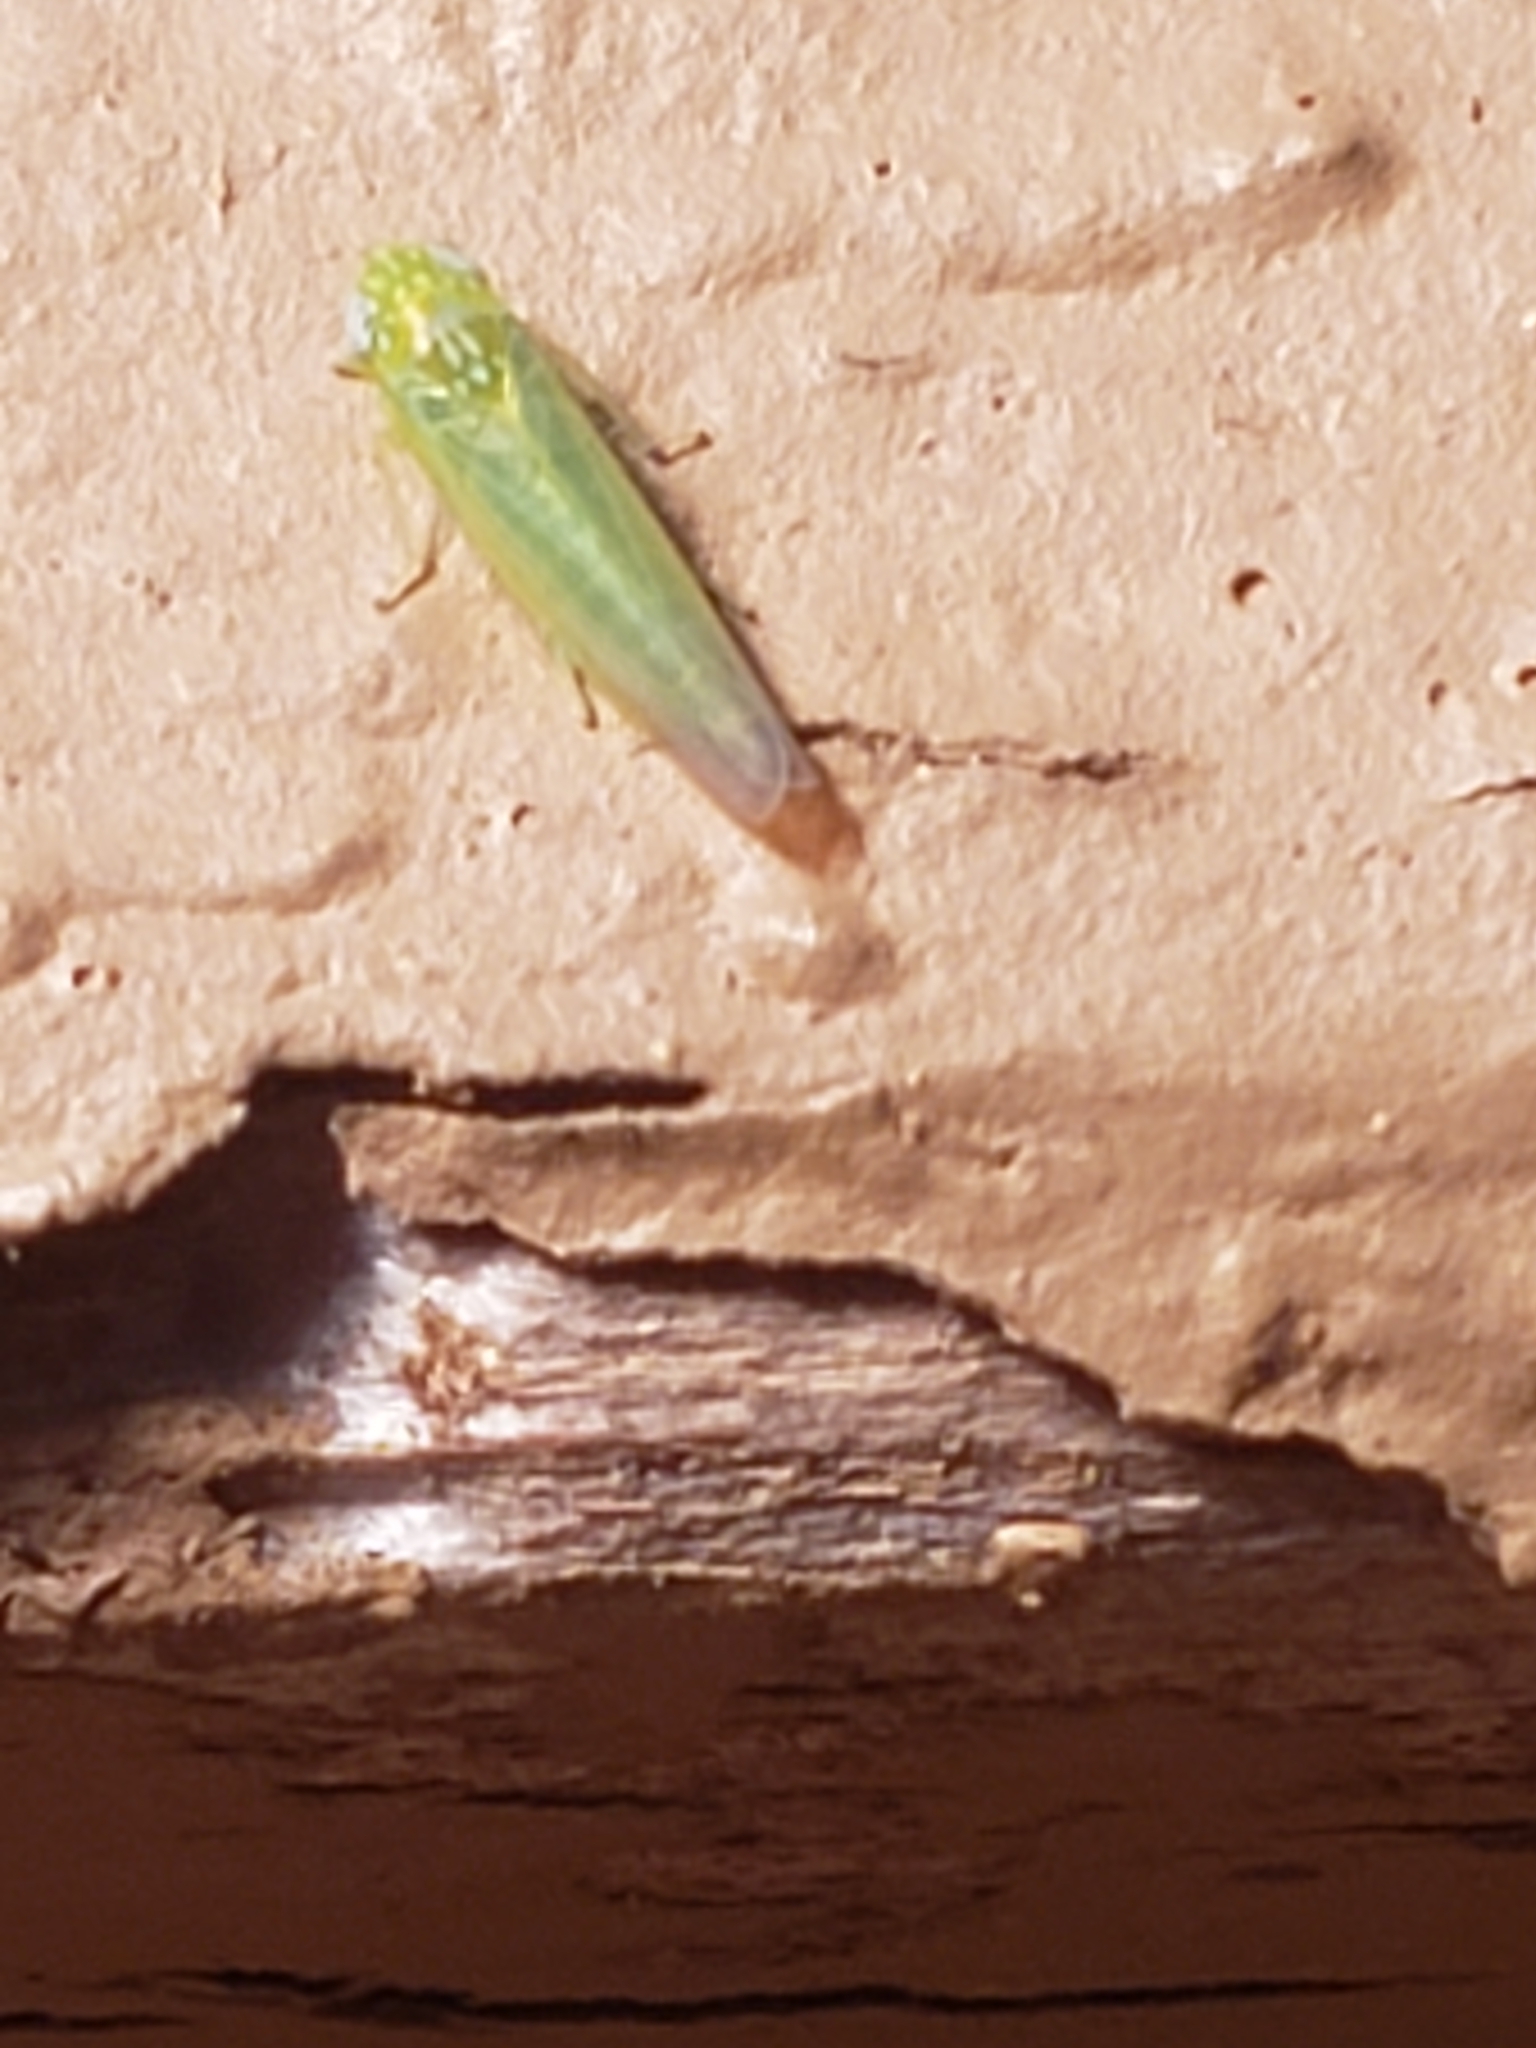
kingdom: Animalia
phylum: Arthropoda
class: Insecta
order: Hemiptera
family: Cicadellidae
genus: Empoasca
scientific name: Empoasca fabae
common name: Potato leafhopper
